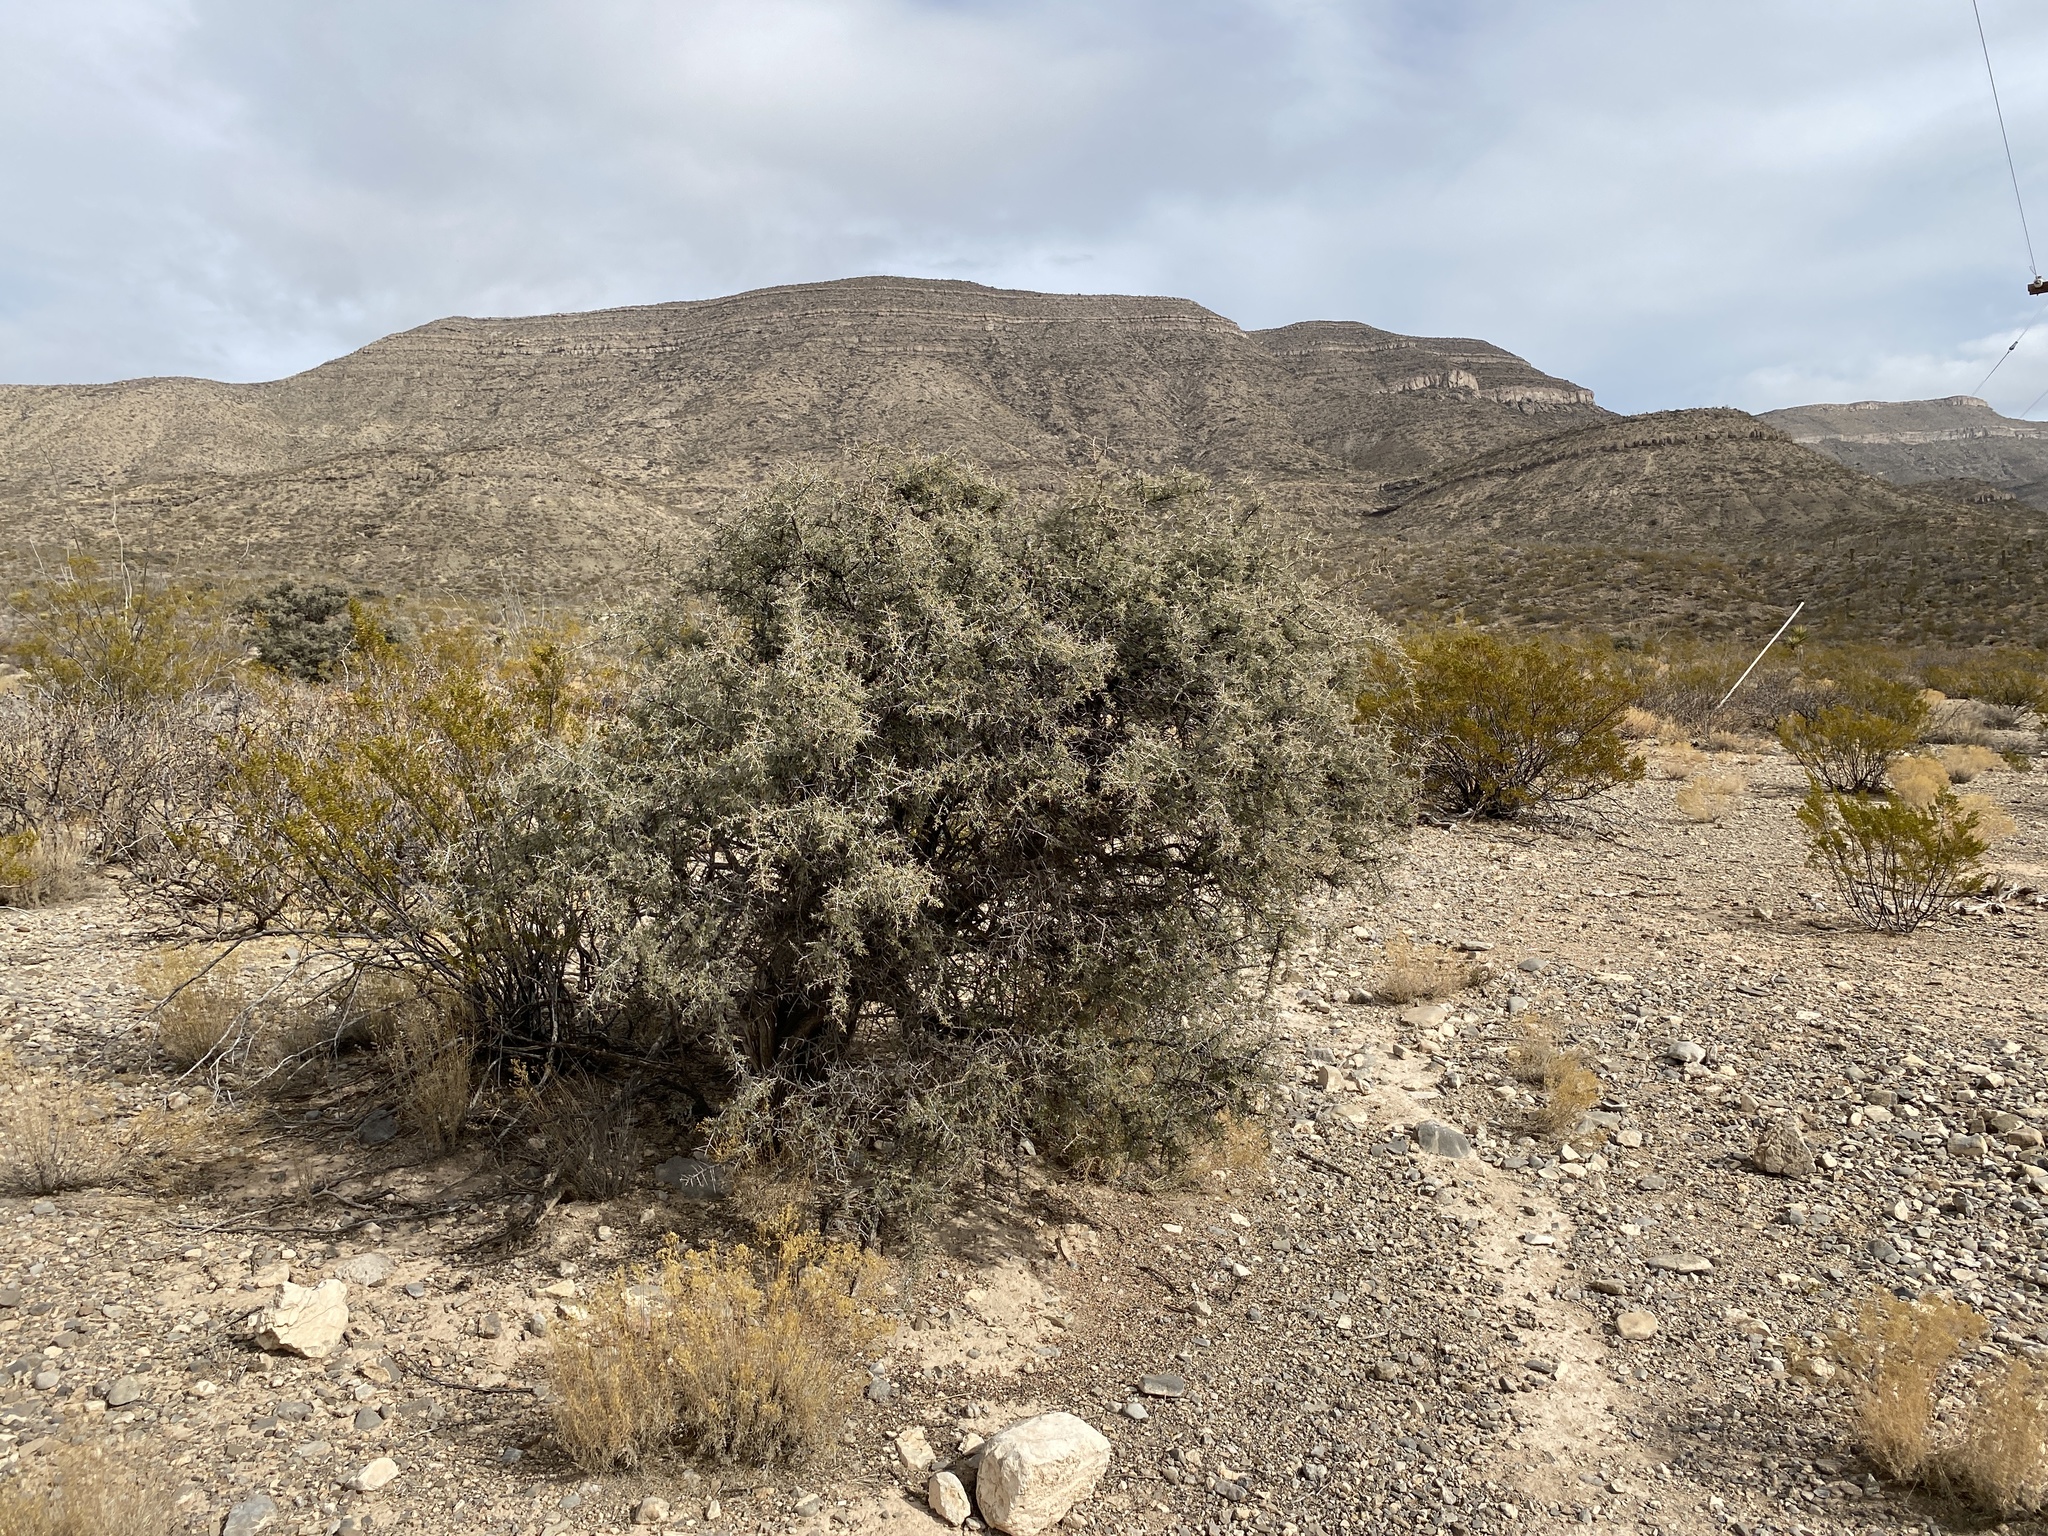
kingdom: Plantae
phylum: Tracheophyta
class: Magnoliopsida
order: Rosales
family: Rhamnaceae
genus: Condalia
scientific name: Condalia warnockii
